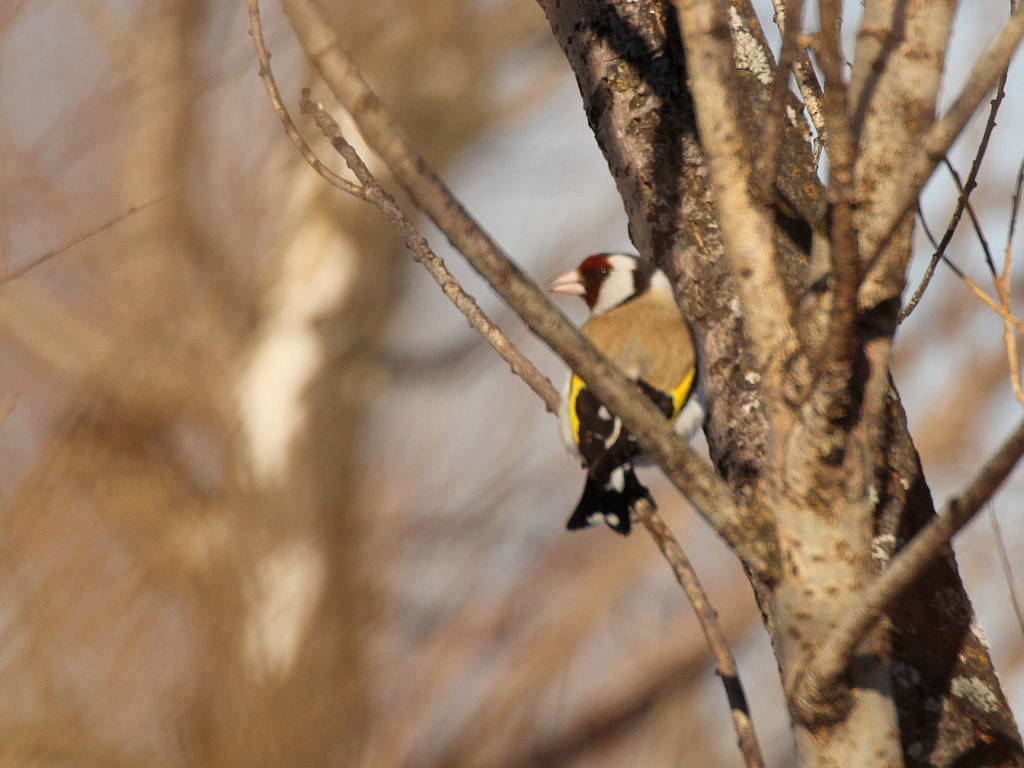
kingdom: Animalia
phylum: Chordata
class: Aves
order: Passeriformes
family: Fringillidae
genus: Carduelis
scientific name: Carduelis carduelis
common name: European goldfinch
